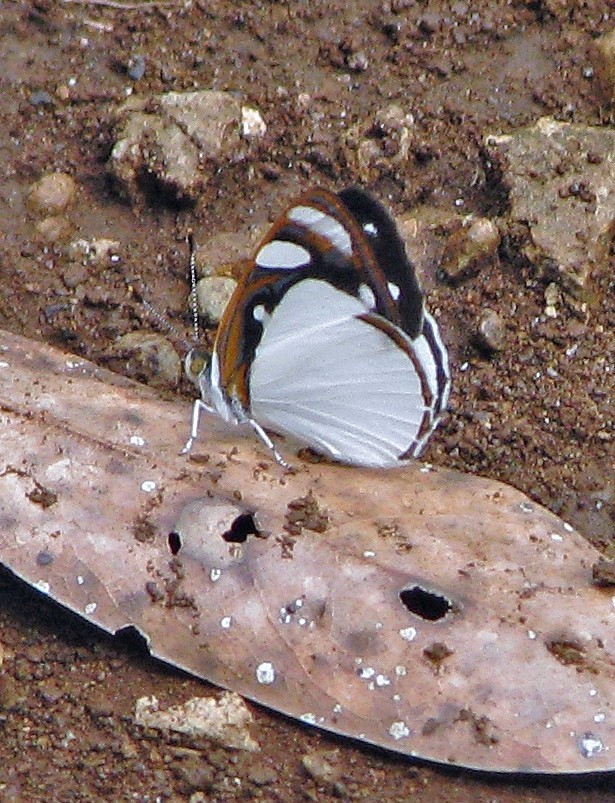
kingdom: Animalia
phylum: Arthropoda
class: Insecta
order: Lepidoptera
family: Nymphalidae
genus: Dynamine
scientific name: Dynamine coenus
